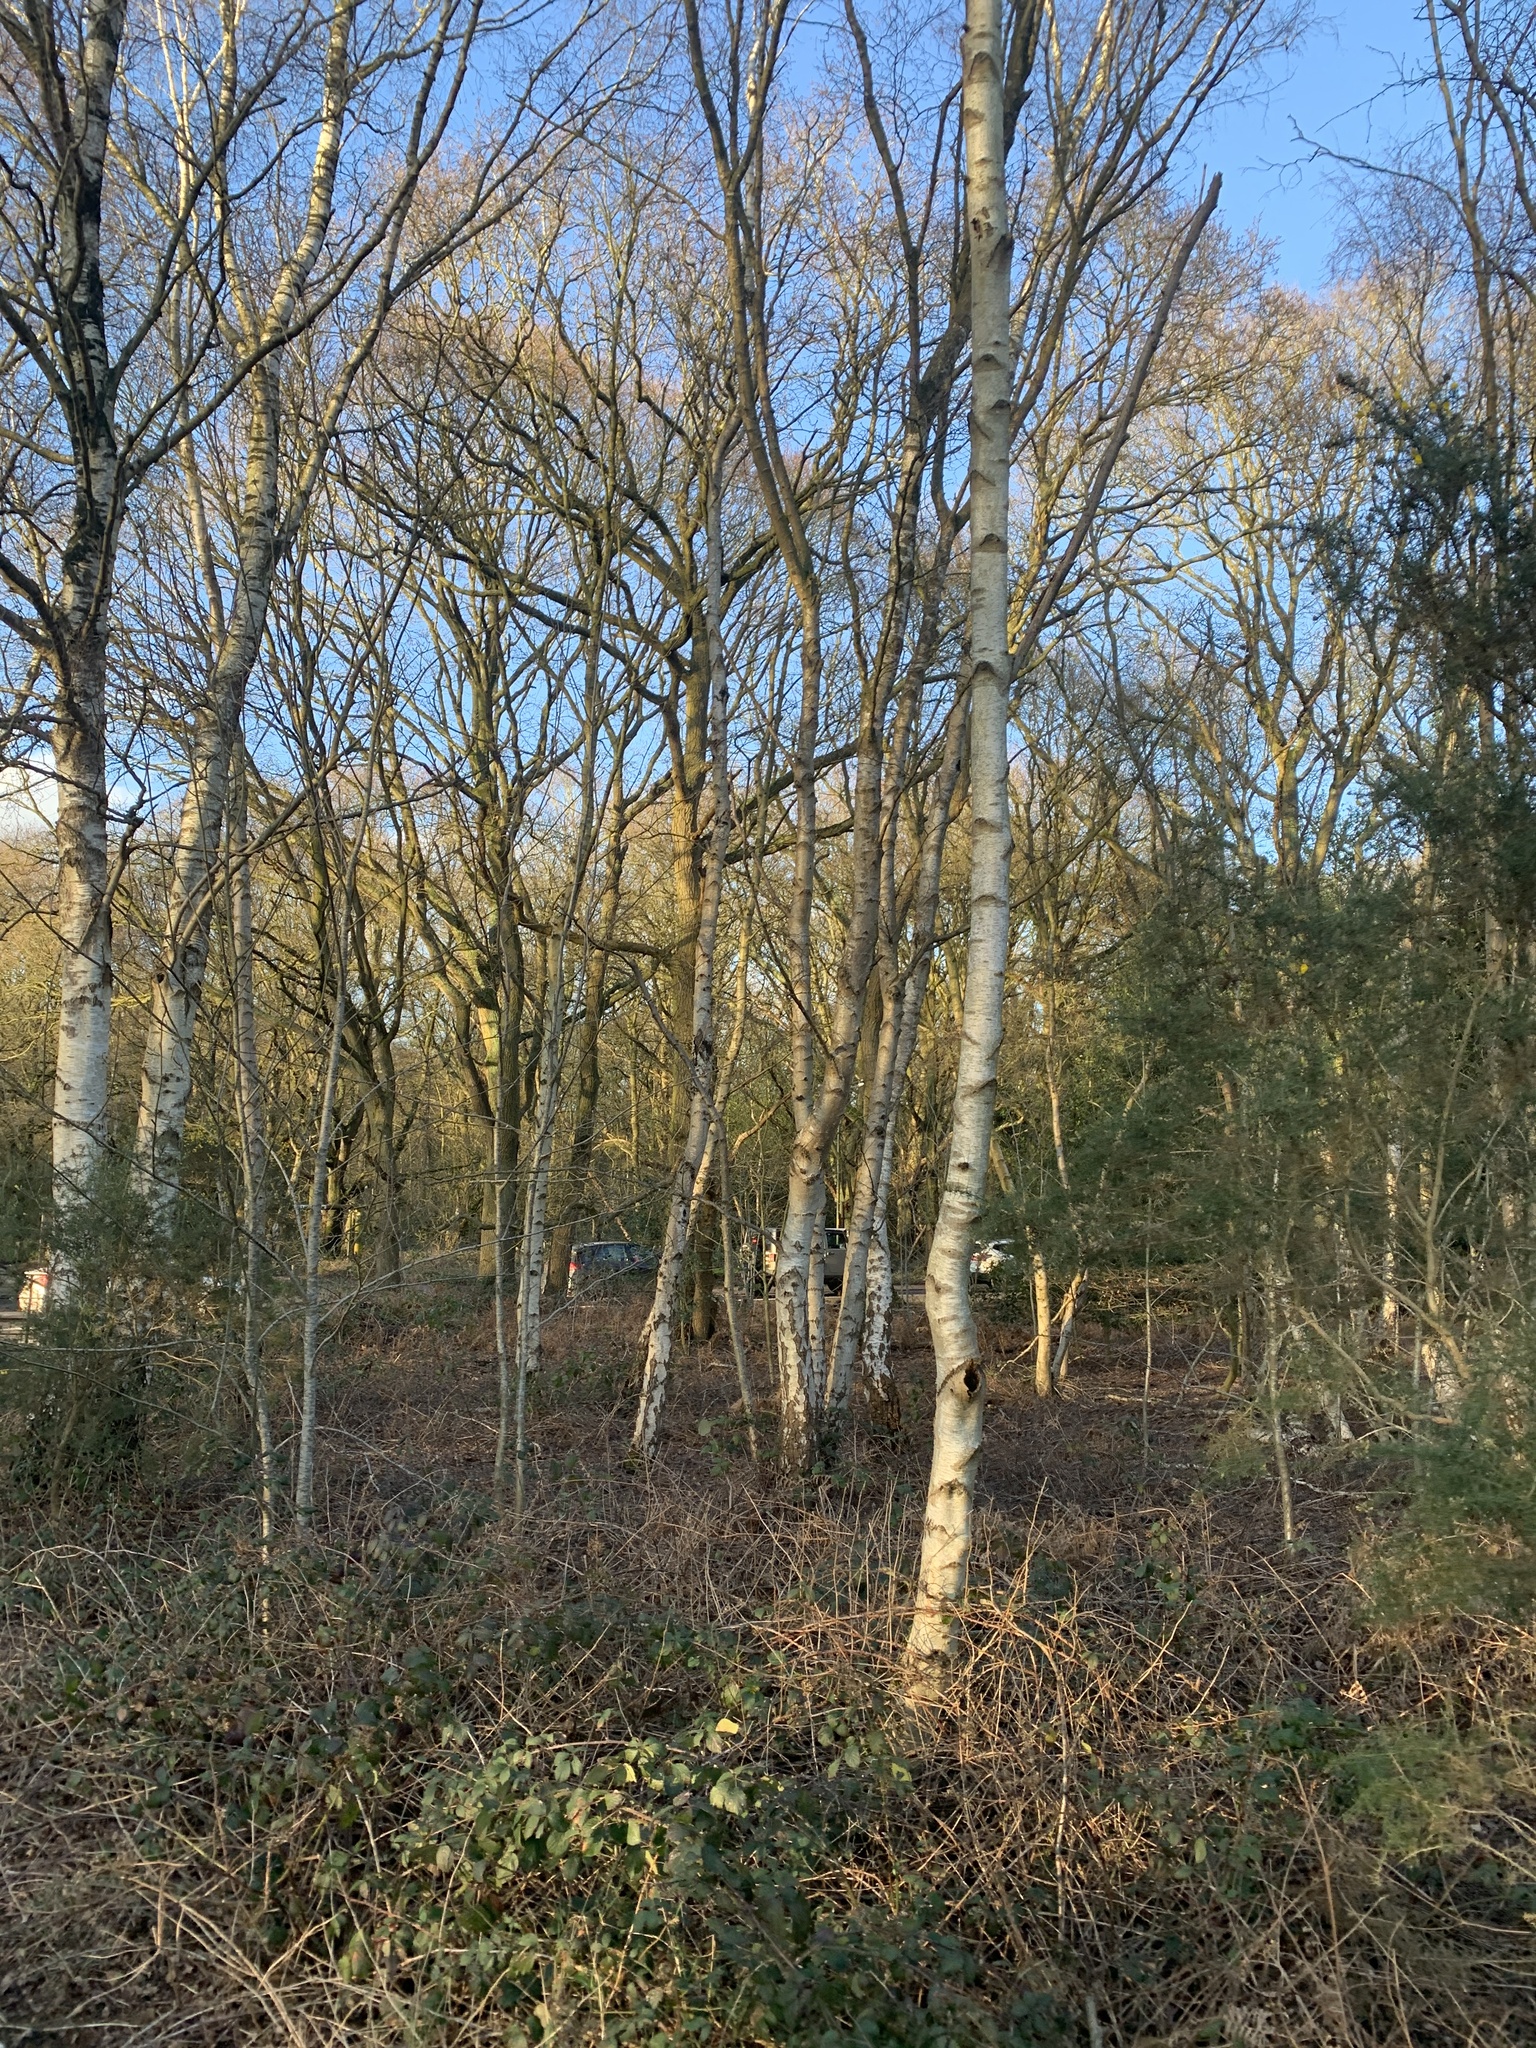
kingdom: Plantae
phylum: Tracheophyta
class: Magnoliopsida
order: Fagales
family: Betulaceae
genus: Betula
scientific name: Betula pendula
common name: Silver birch
